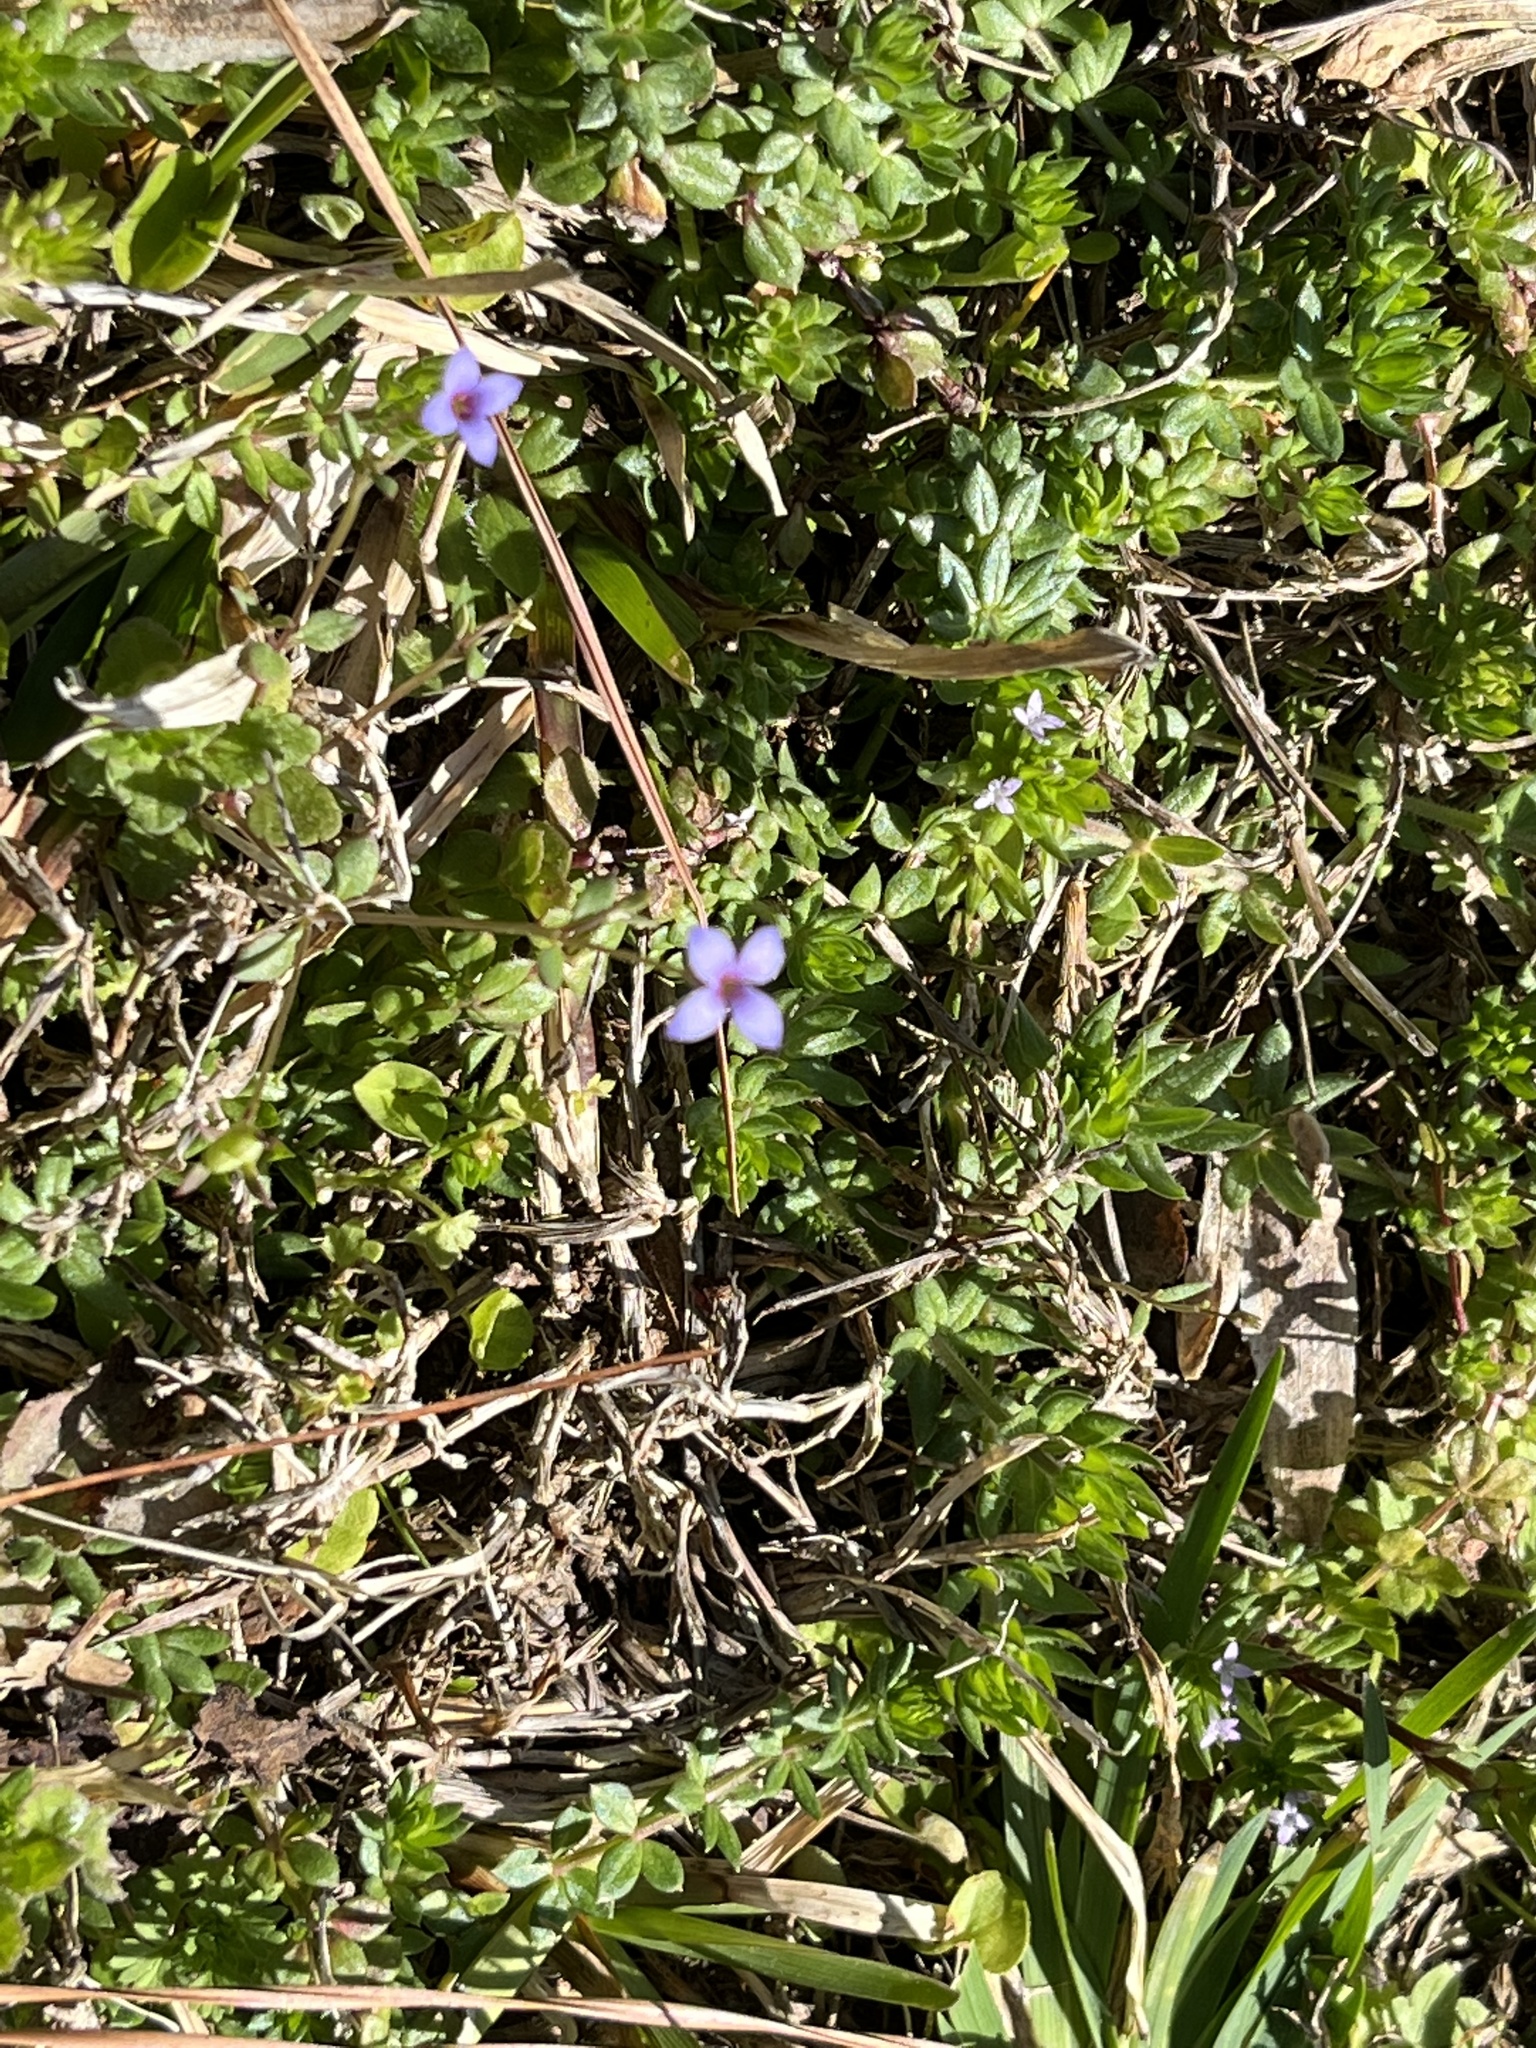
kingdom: Plantae
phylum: Tracheophyta
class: Magnoliopsida
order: Gentianales
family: Rubiaceae
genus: Houstonia
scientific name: Houstonia pusilla
